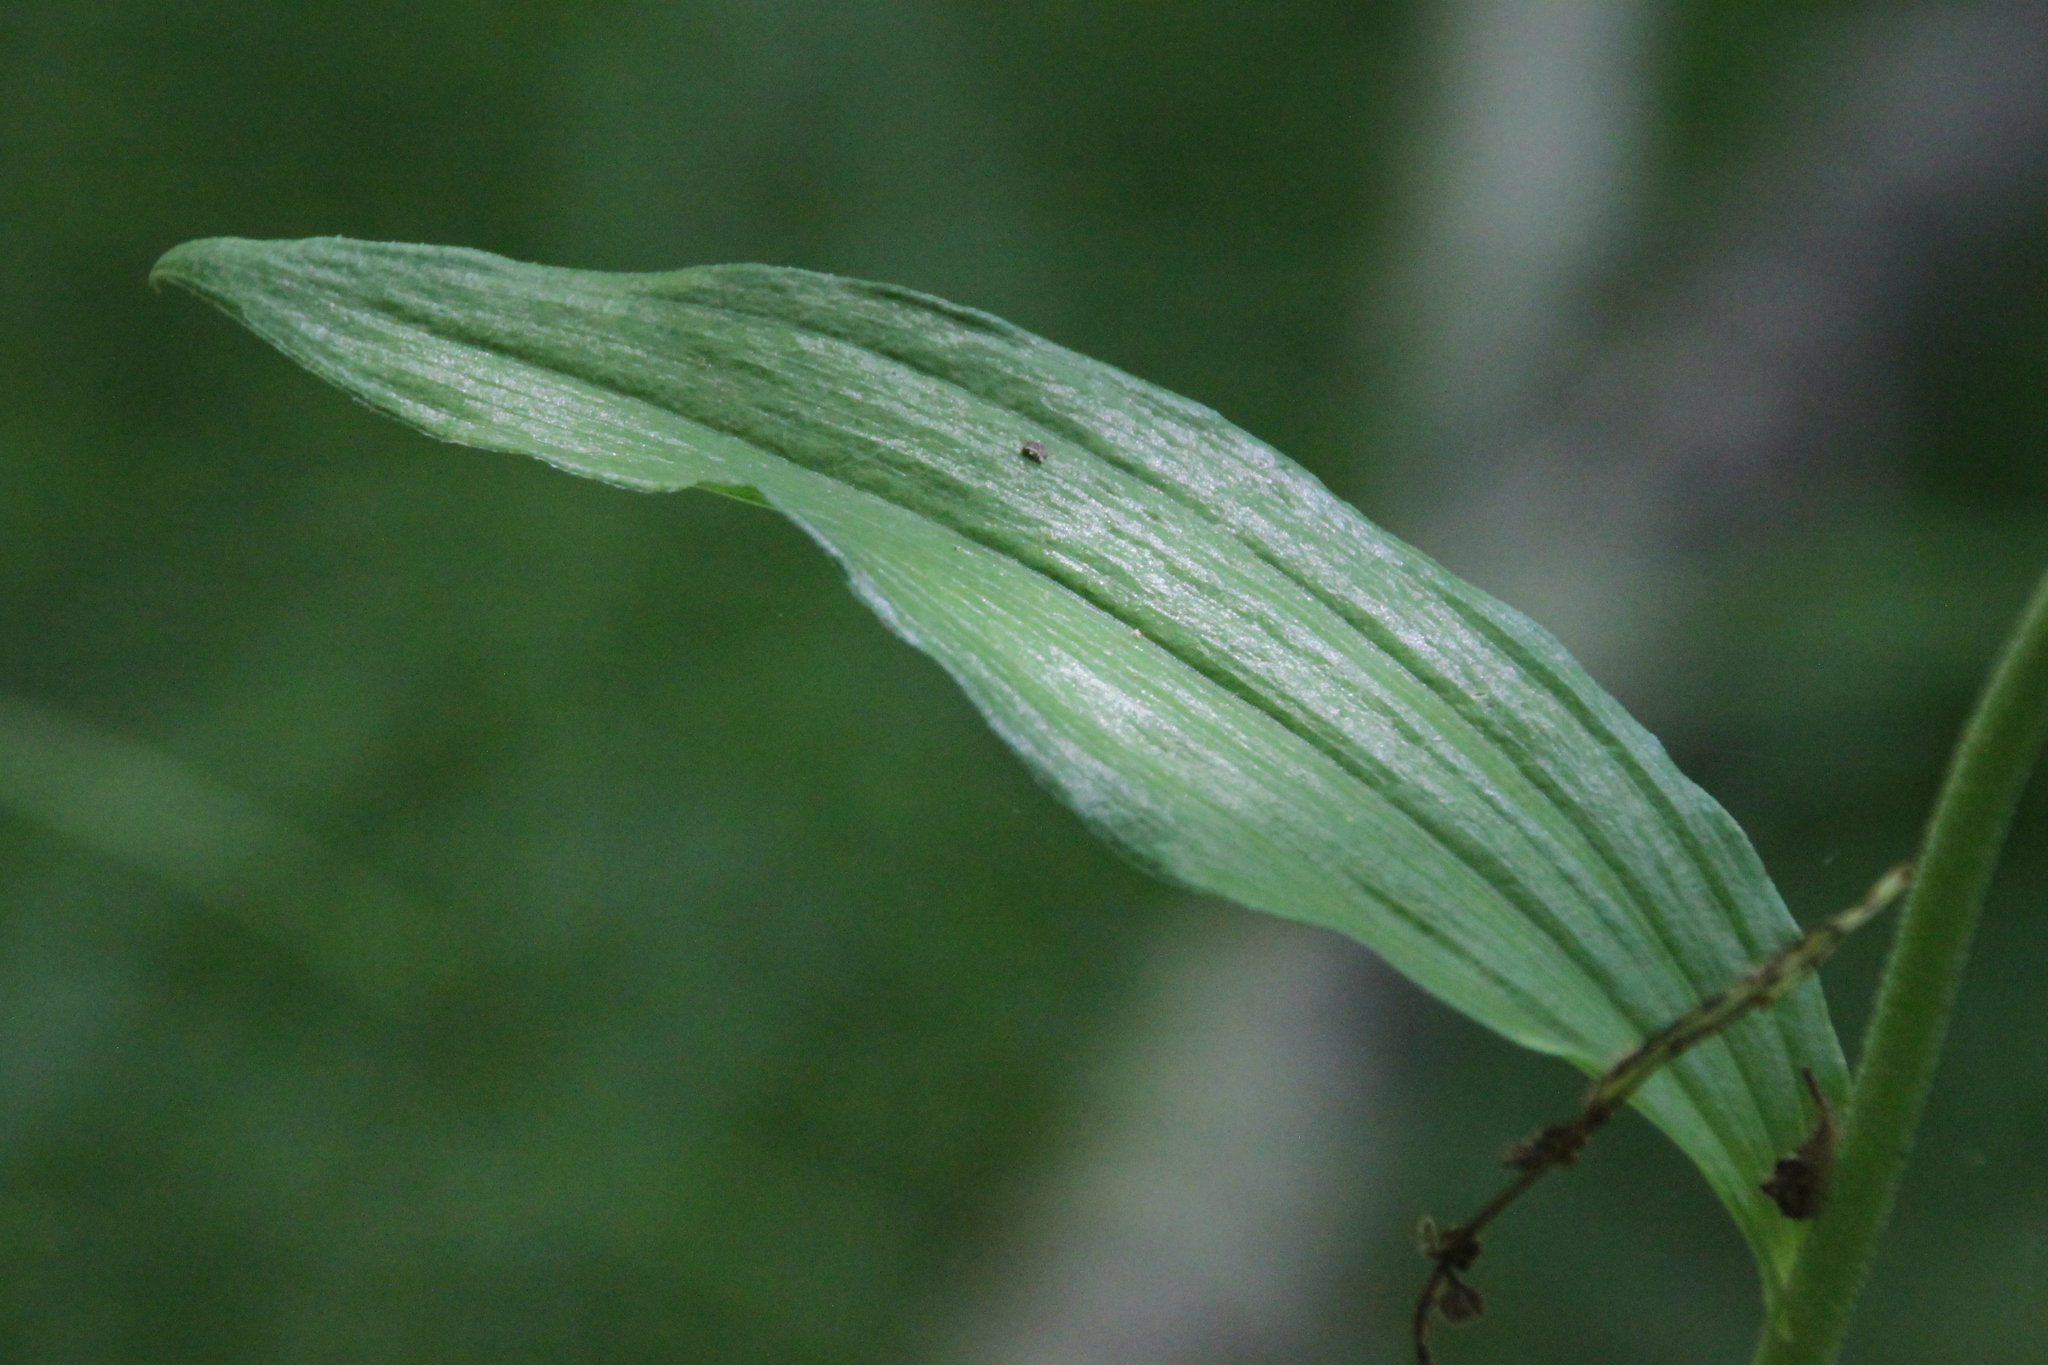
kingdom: Plantae
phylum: Tracheophyta
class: Liliopsida
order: Asparagales
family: Orchidaceae
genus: Epipactis
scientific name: Epipactis helleborine
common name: Broad-leaved helleborine
